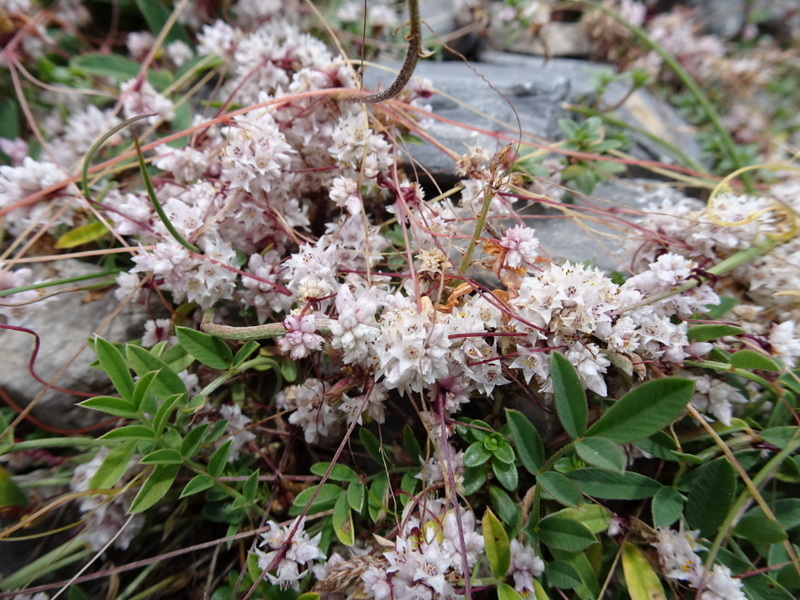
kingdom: Plantae
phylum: Tracheophyta
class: Magnoliopsida
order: Solanales
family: Convolvulaceae
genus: Cuscuta
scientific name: Cuscuta epithymum
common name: Clover dodder
